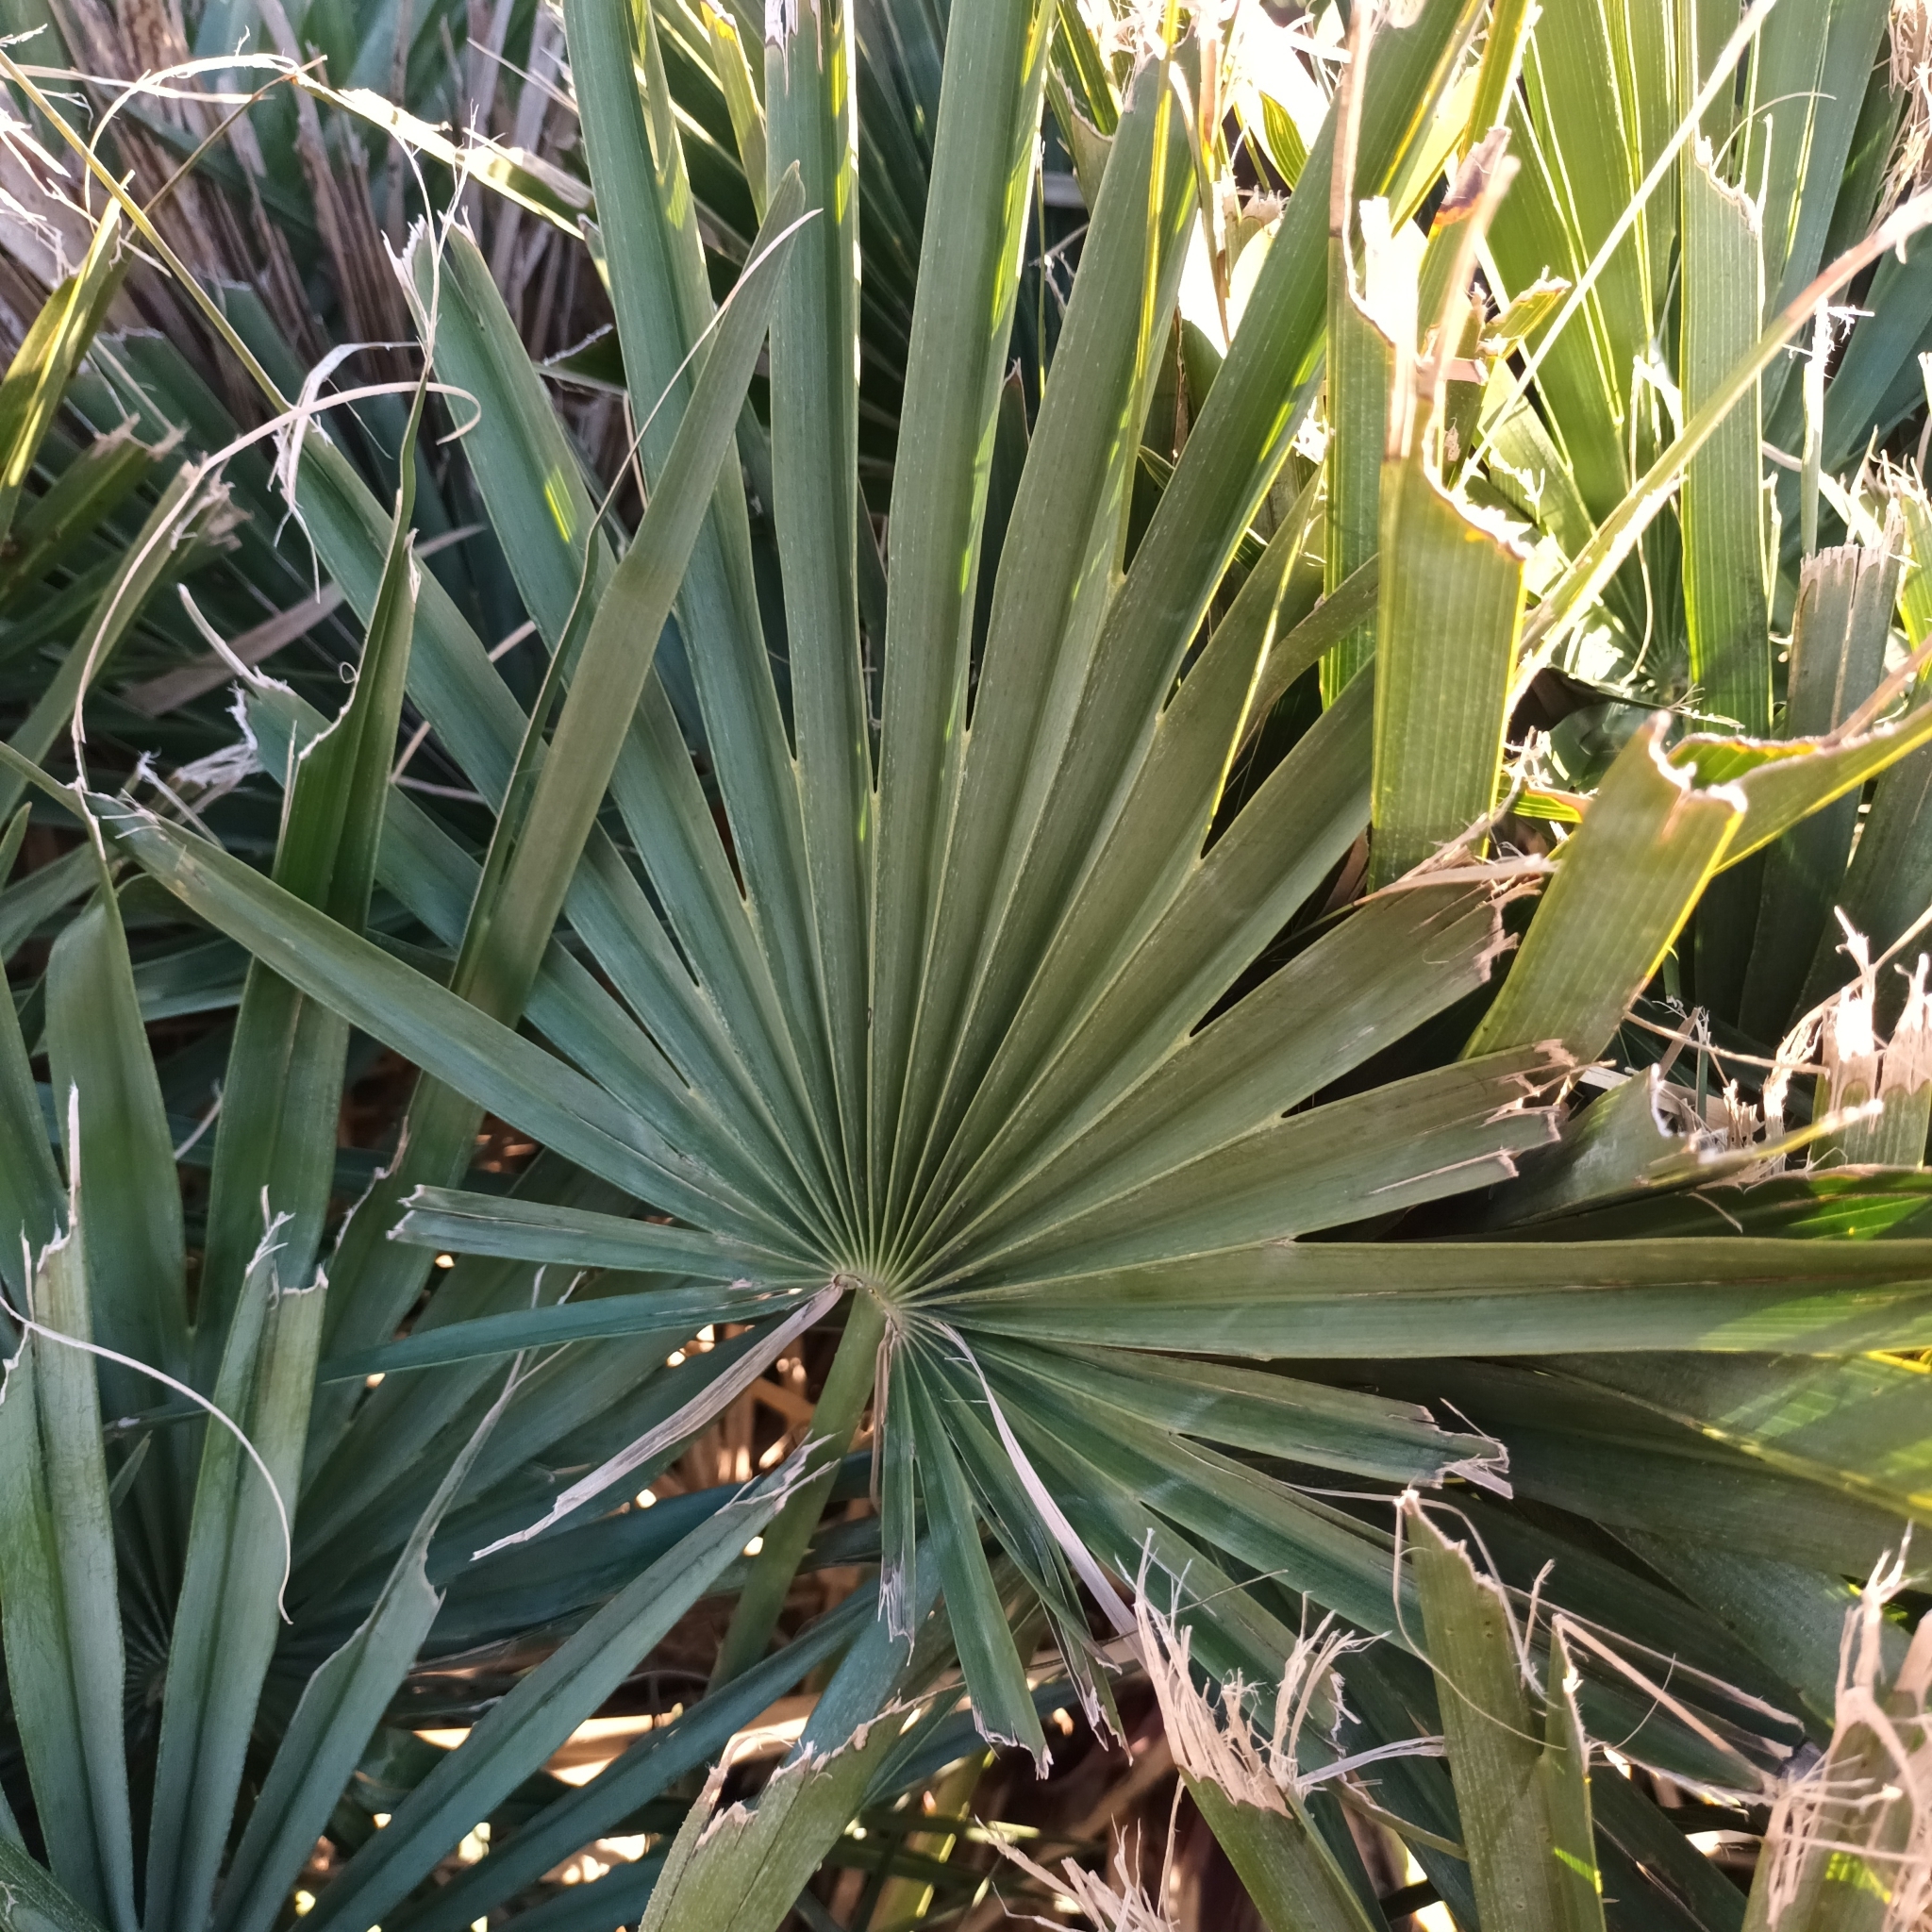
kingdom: Plantae
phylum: Tracheophyta
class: Liliopsida
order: Arecales
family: Arecaceae
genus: Chamaerops
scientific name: Chamaerops humilis
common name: Dwarf fan palm
